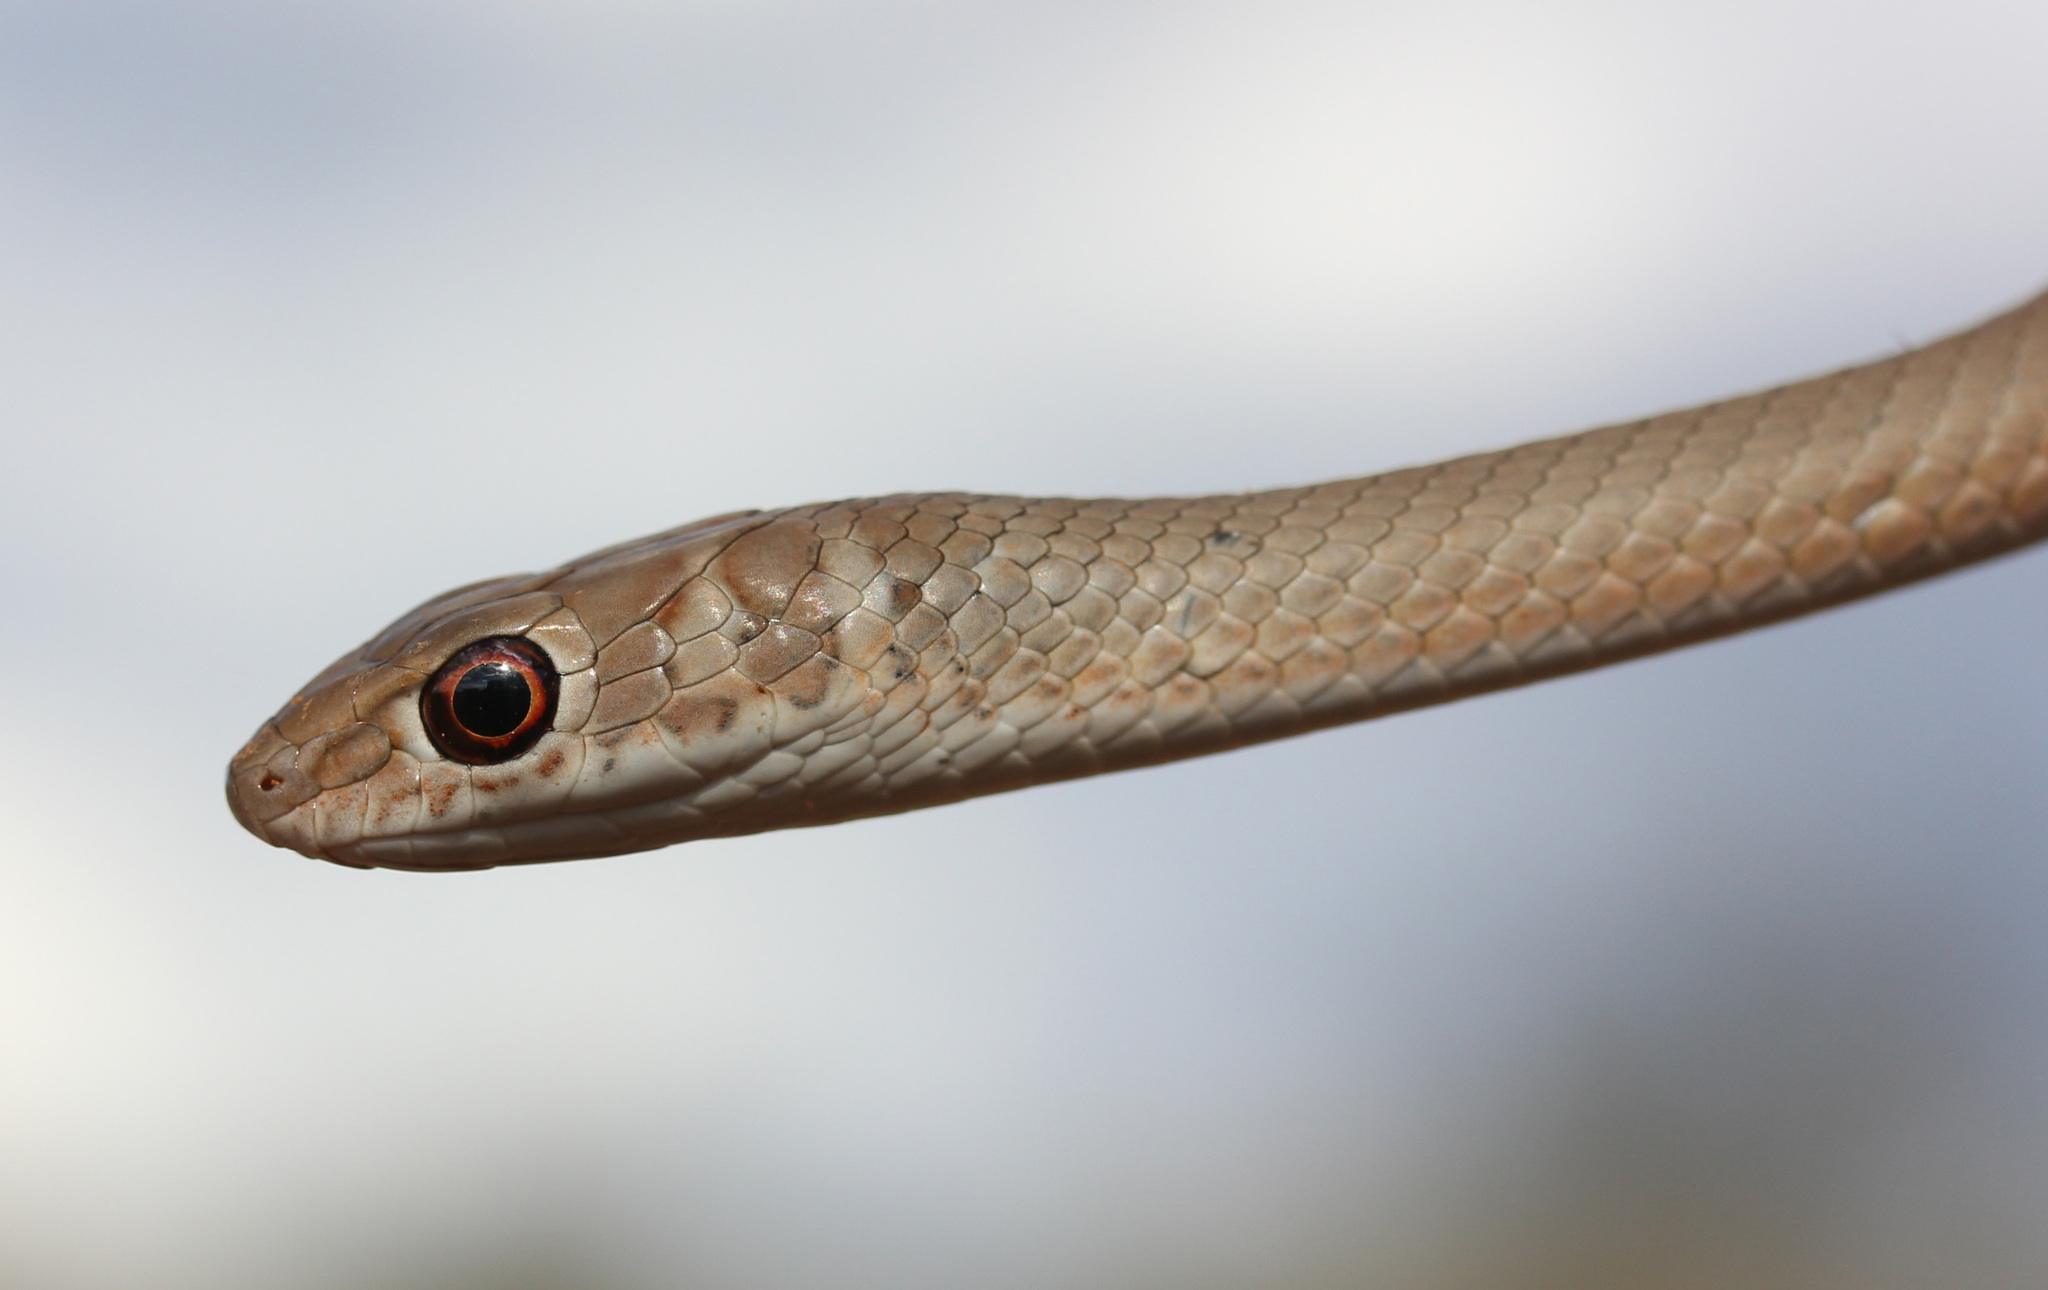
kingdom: Animalia
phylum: Chordata
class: Squamata
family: Psammophiidae
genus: Psammophis
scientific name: Psammophis brevirostris
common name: Short-snouted grass snake
